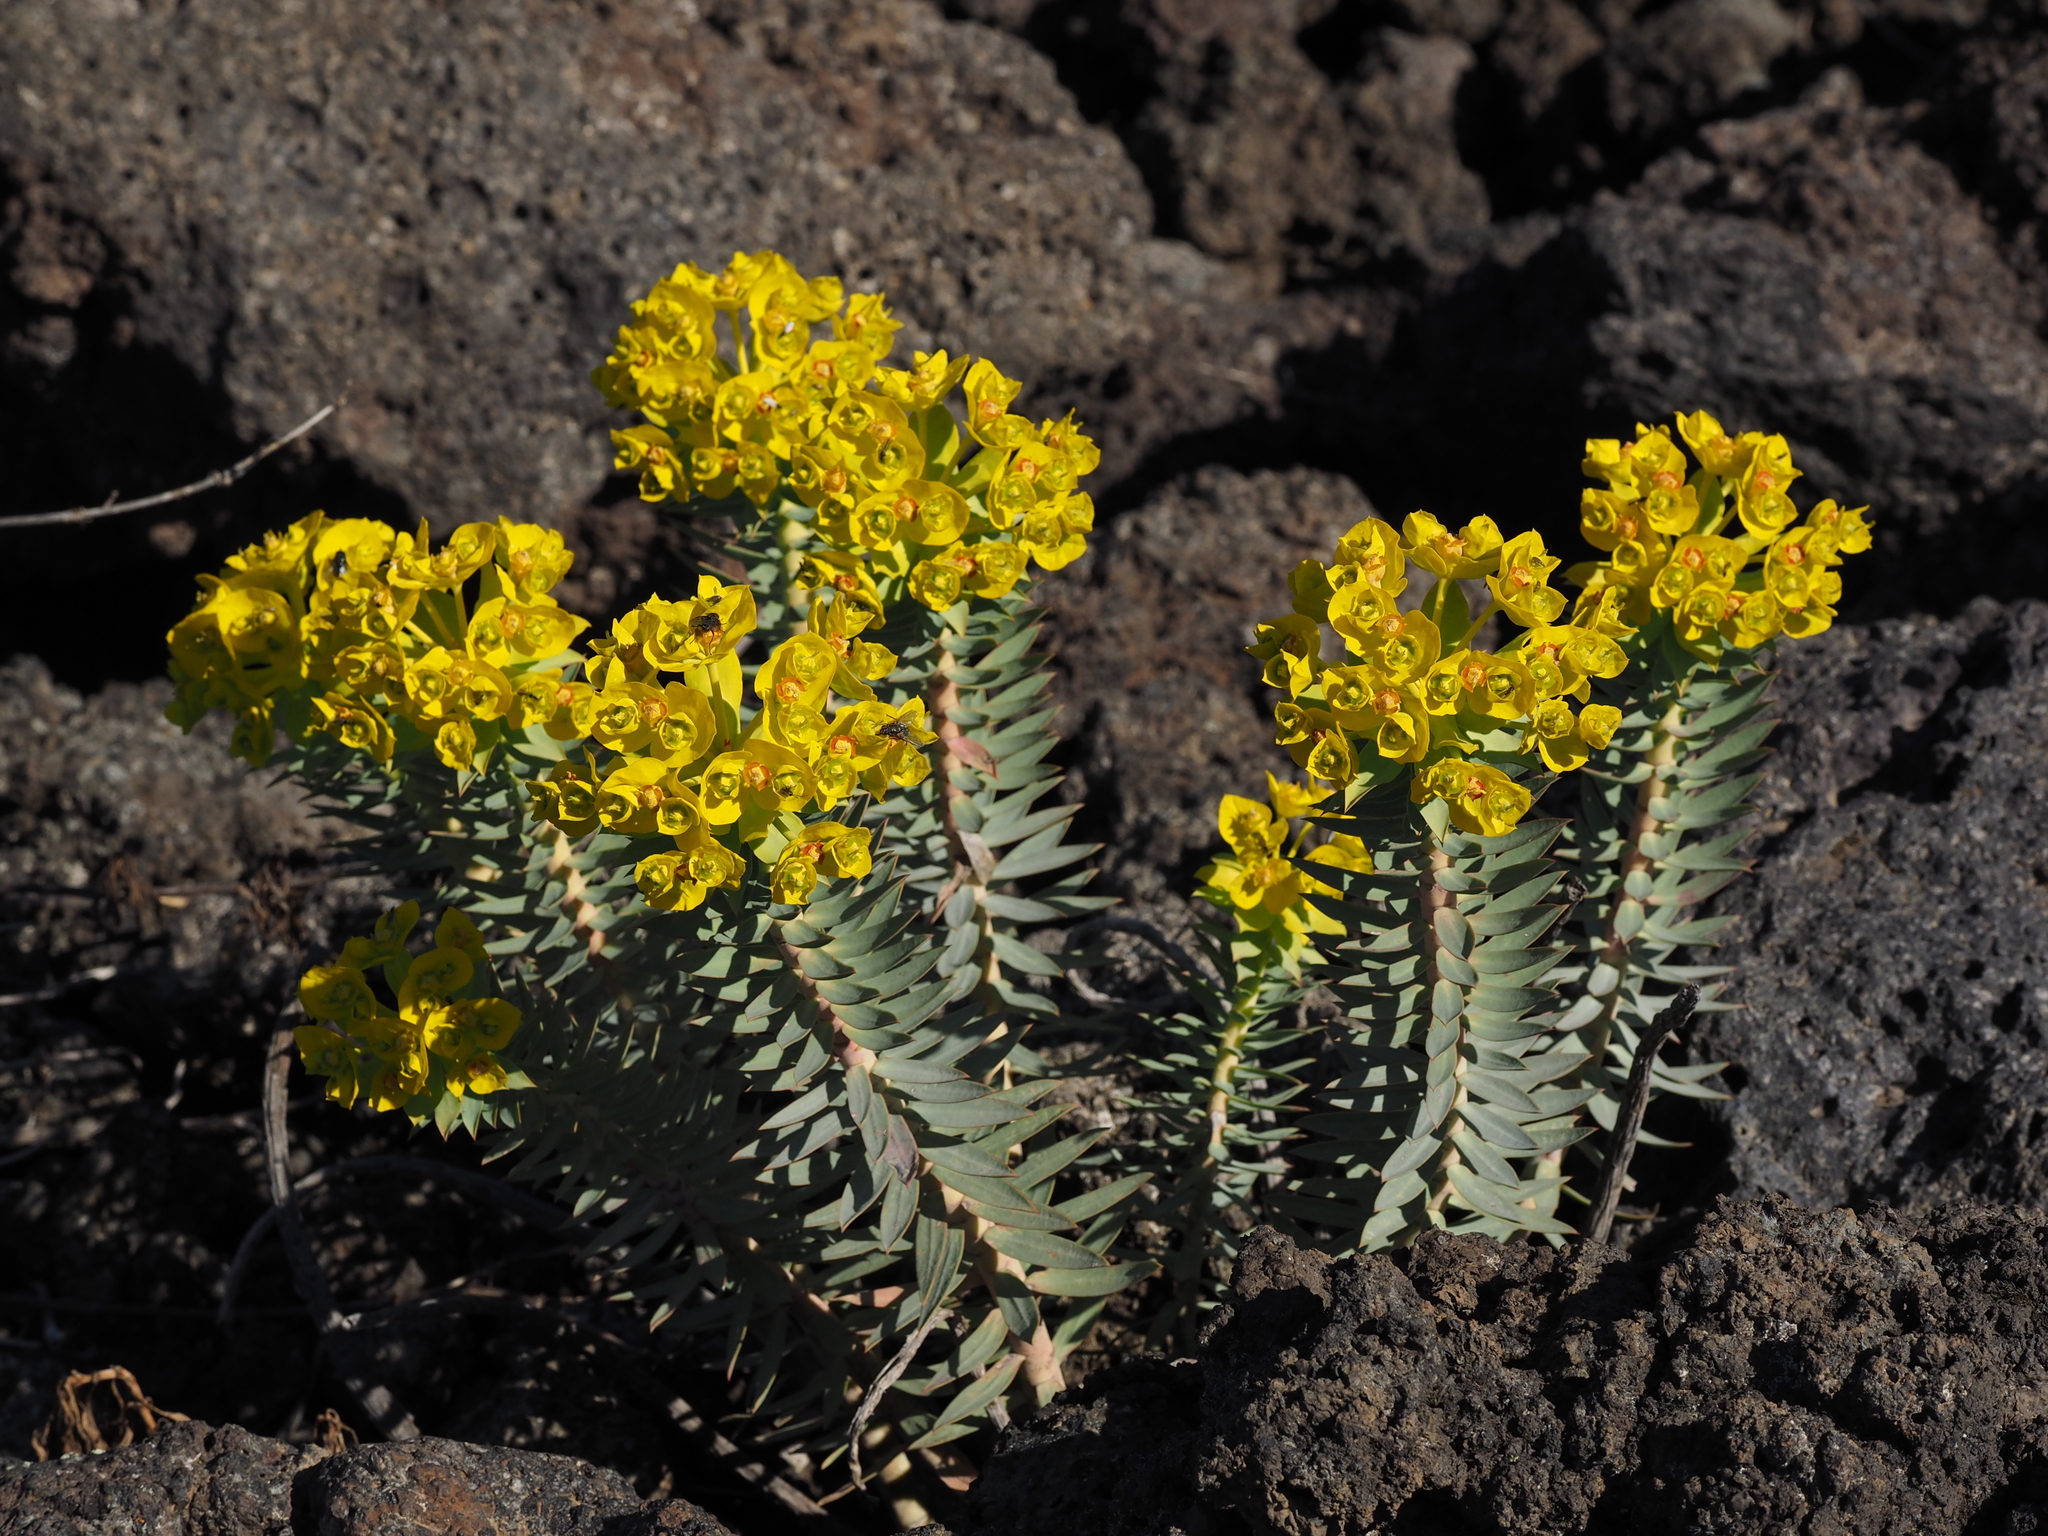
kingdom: Plantae
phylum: Tracheophyta
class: Magnoliopsida
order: Malpighiales
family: Euphorbiaceae
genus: Euphorbia
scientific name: Euphorbia rigida
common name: Upright myrtle spurge
